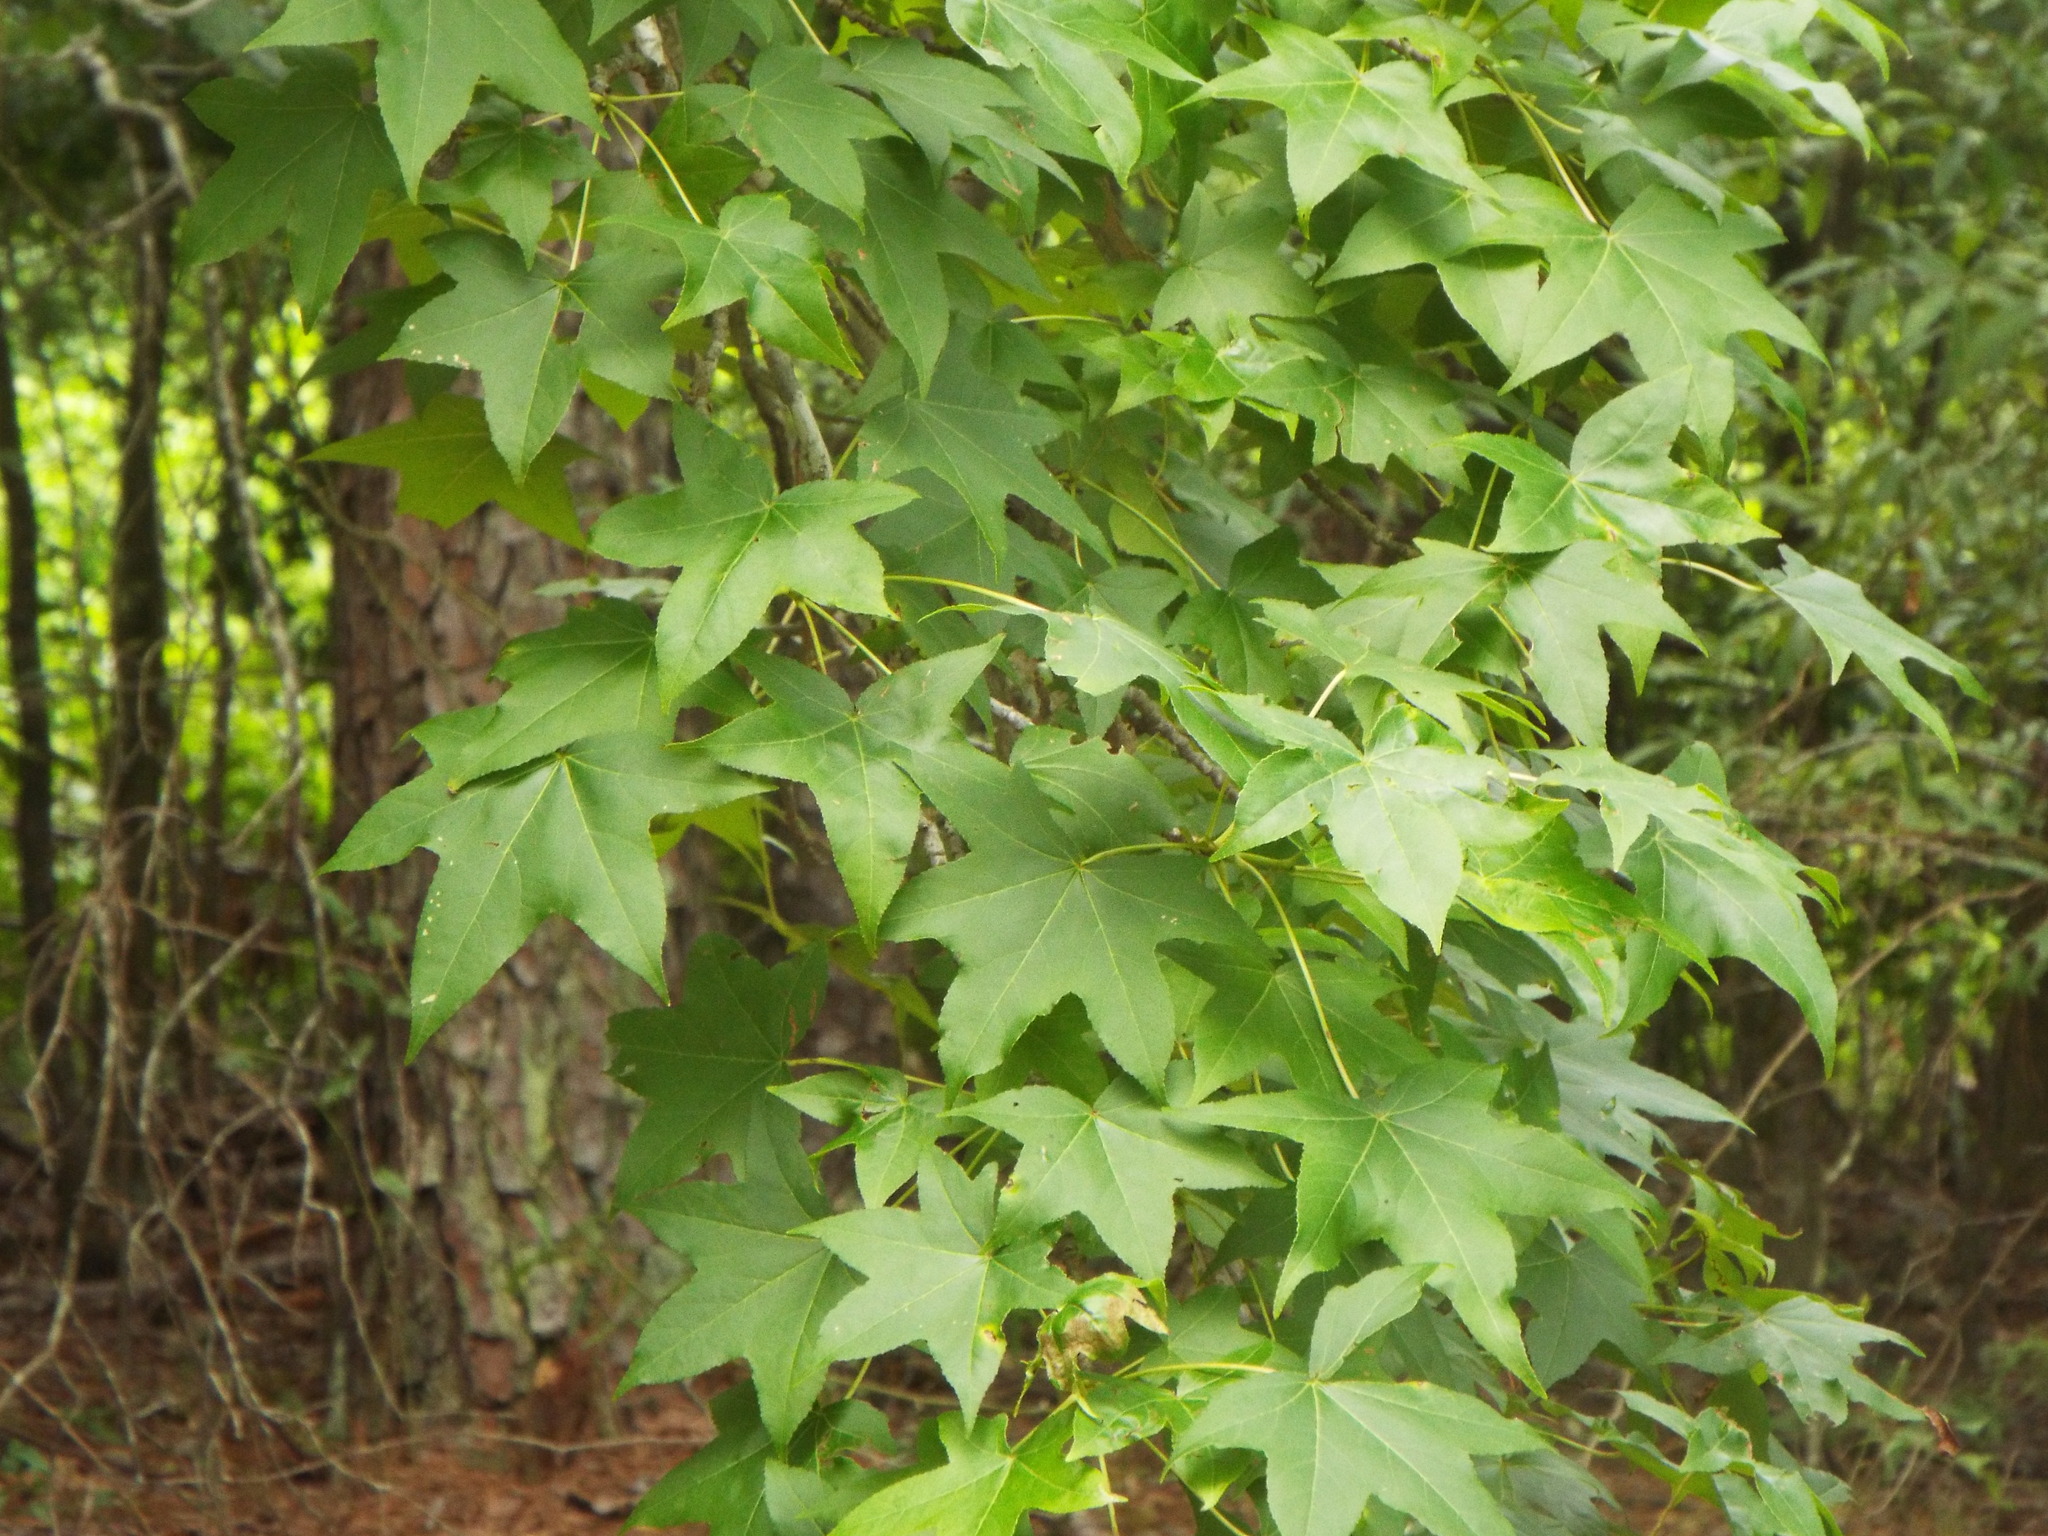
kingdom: Plantae
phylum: Tracheophyta
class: Magnoliopsida
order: Saxifragales
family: Altingiaceae
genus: Liquidambar
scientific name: Liquidambar styraciflua
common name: Sweet gum
